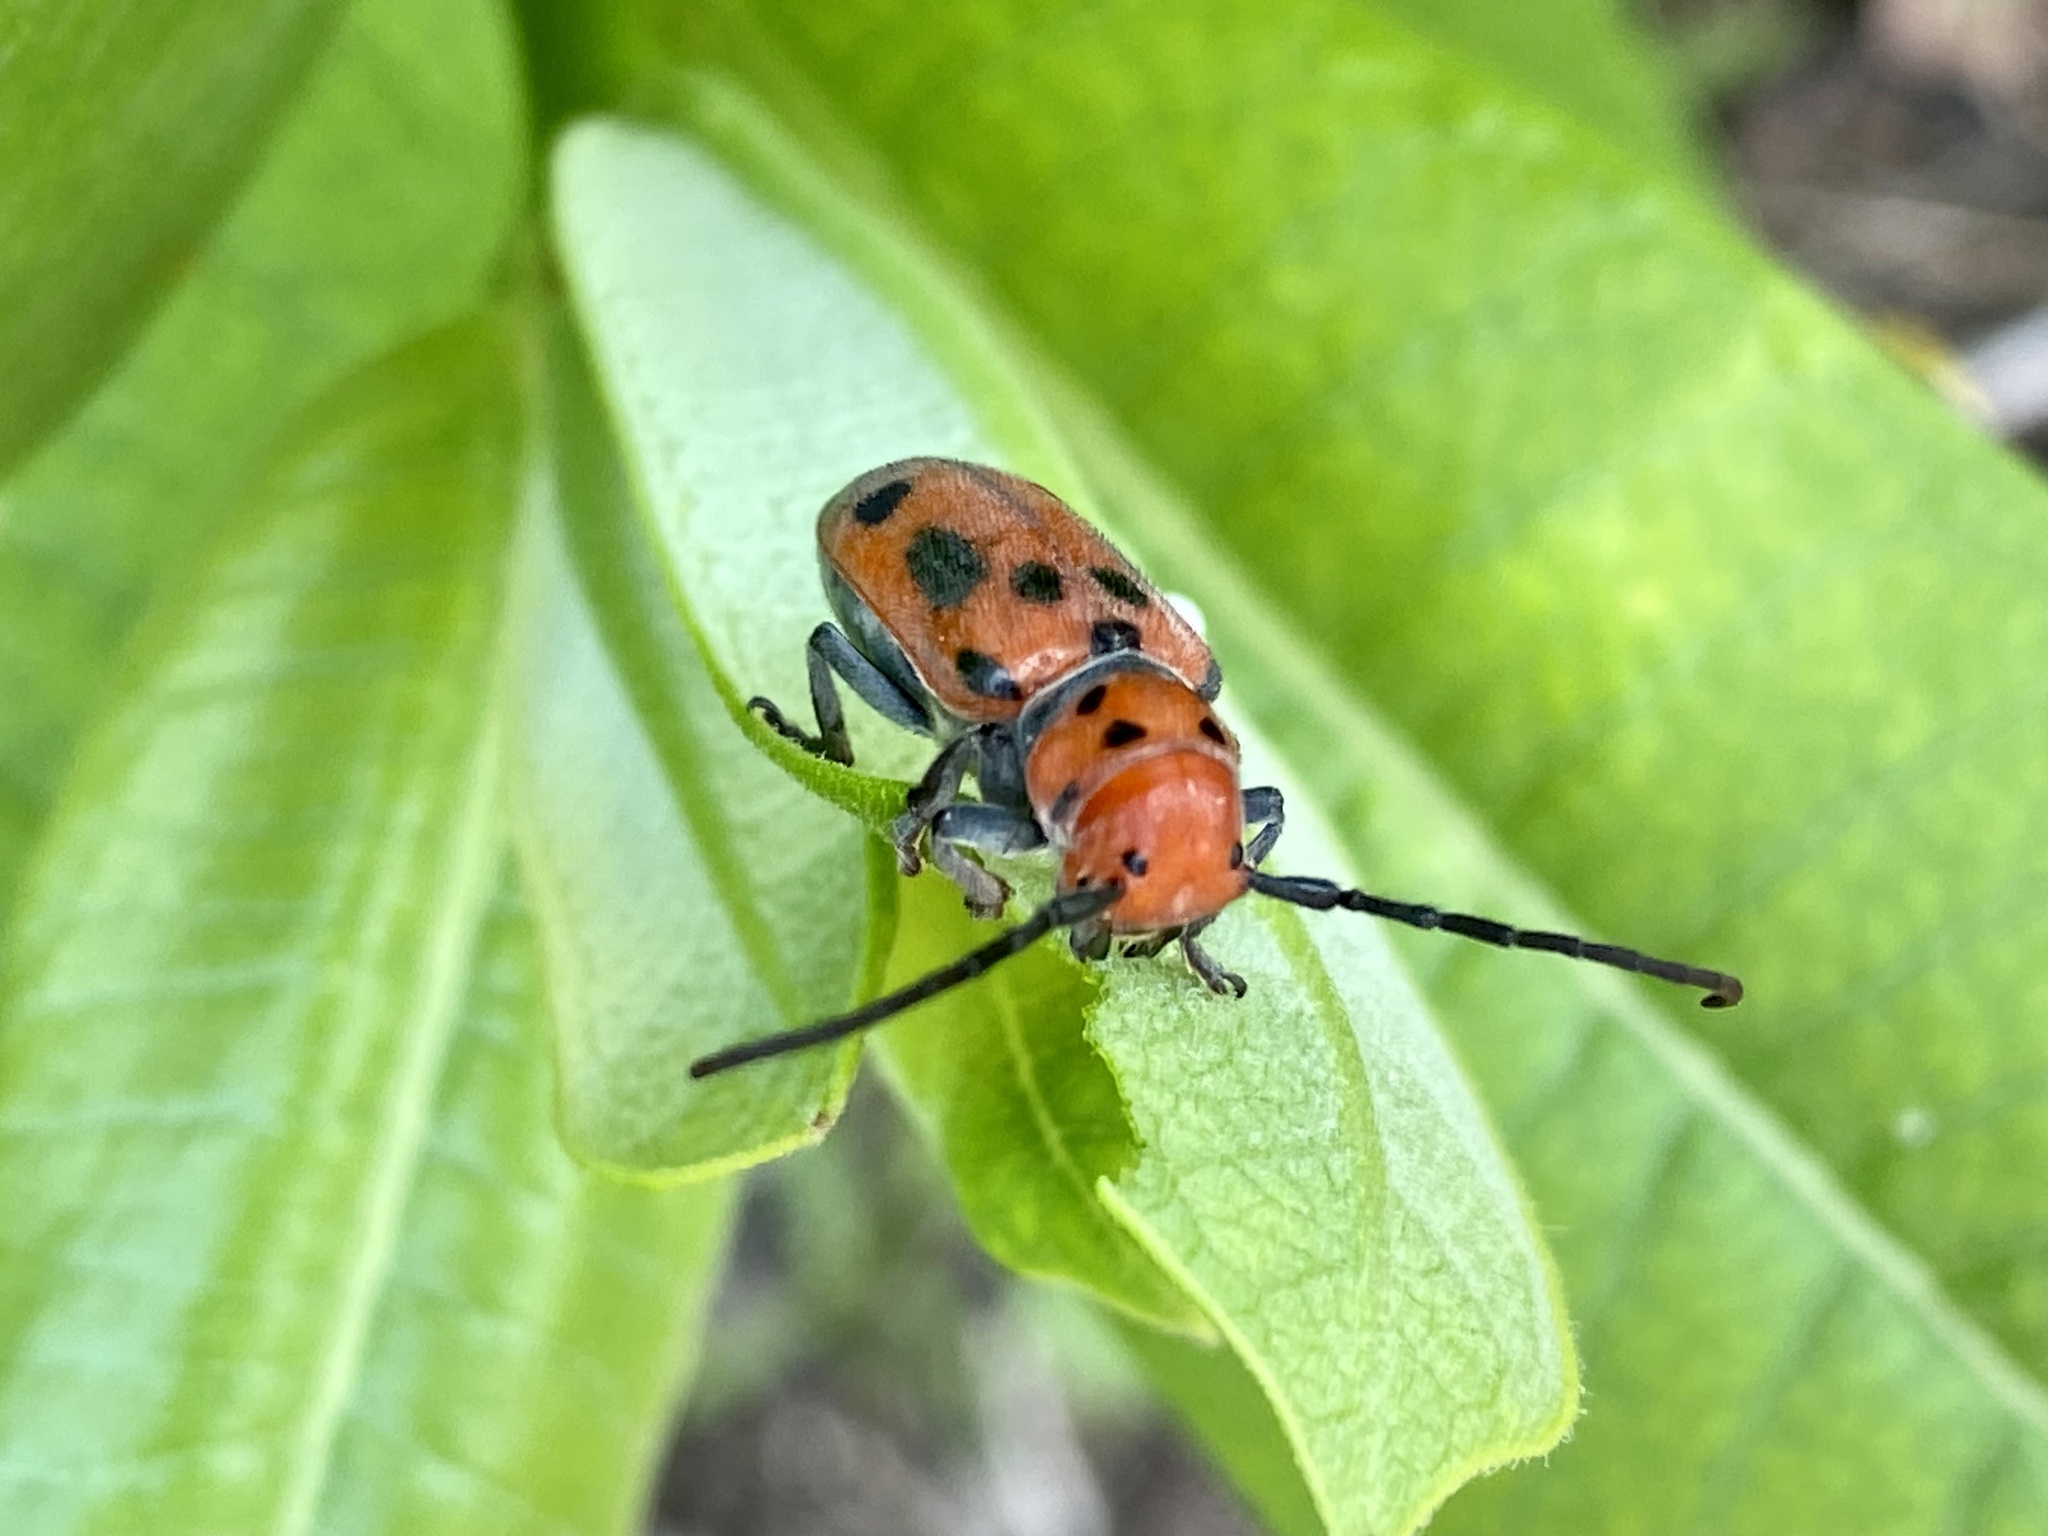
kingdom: Animalia
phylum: Arthropoda
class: Insecta
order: Coleoptera
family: Cerambycidae
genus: Tetraopes
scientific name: Tetraopes tetrophthalmus
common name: Red milkweed beetle
